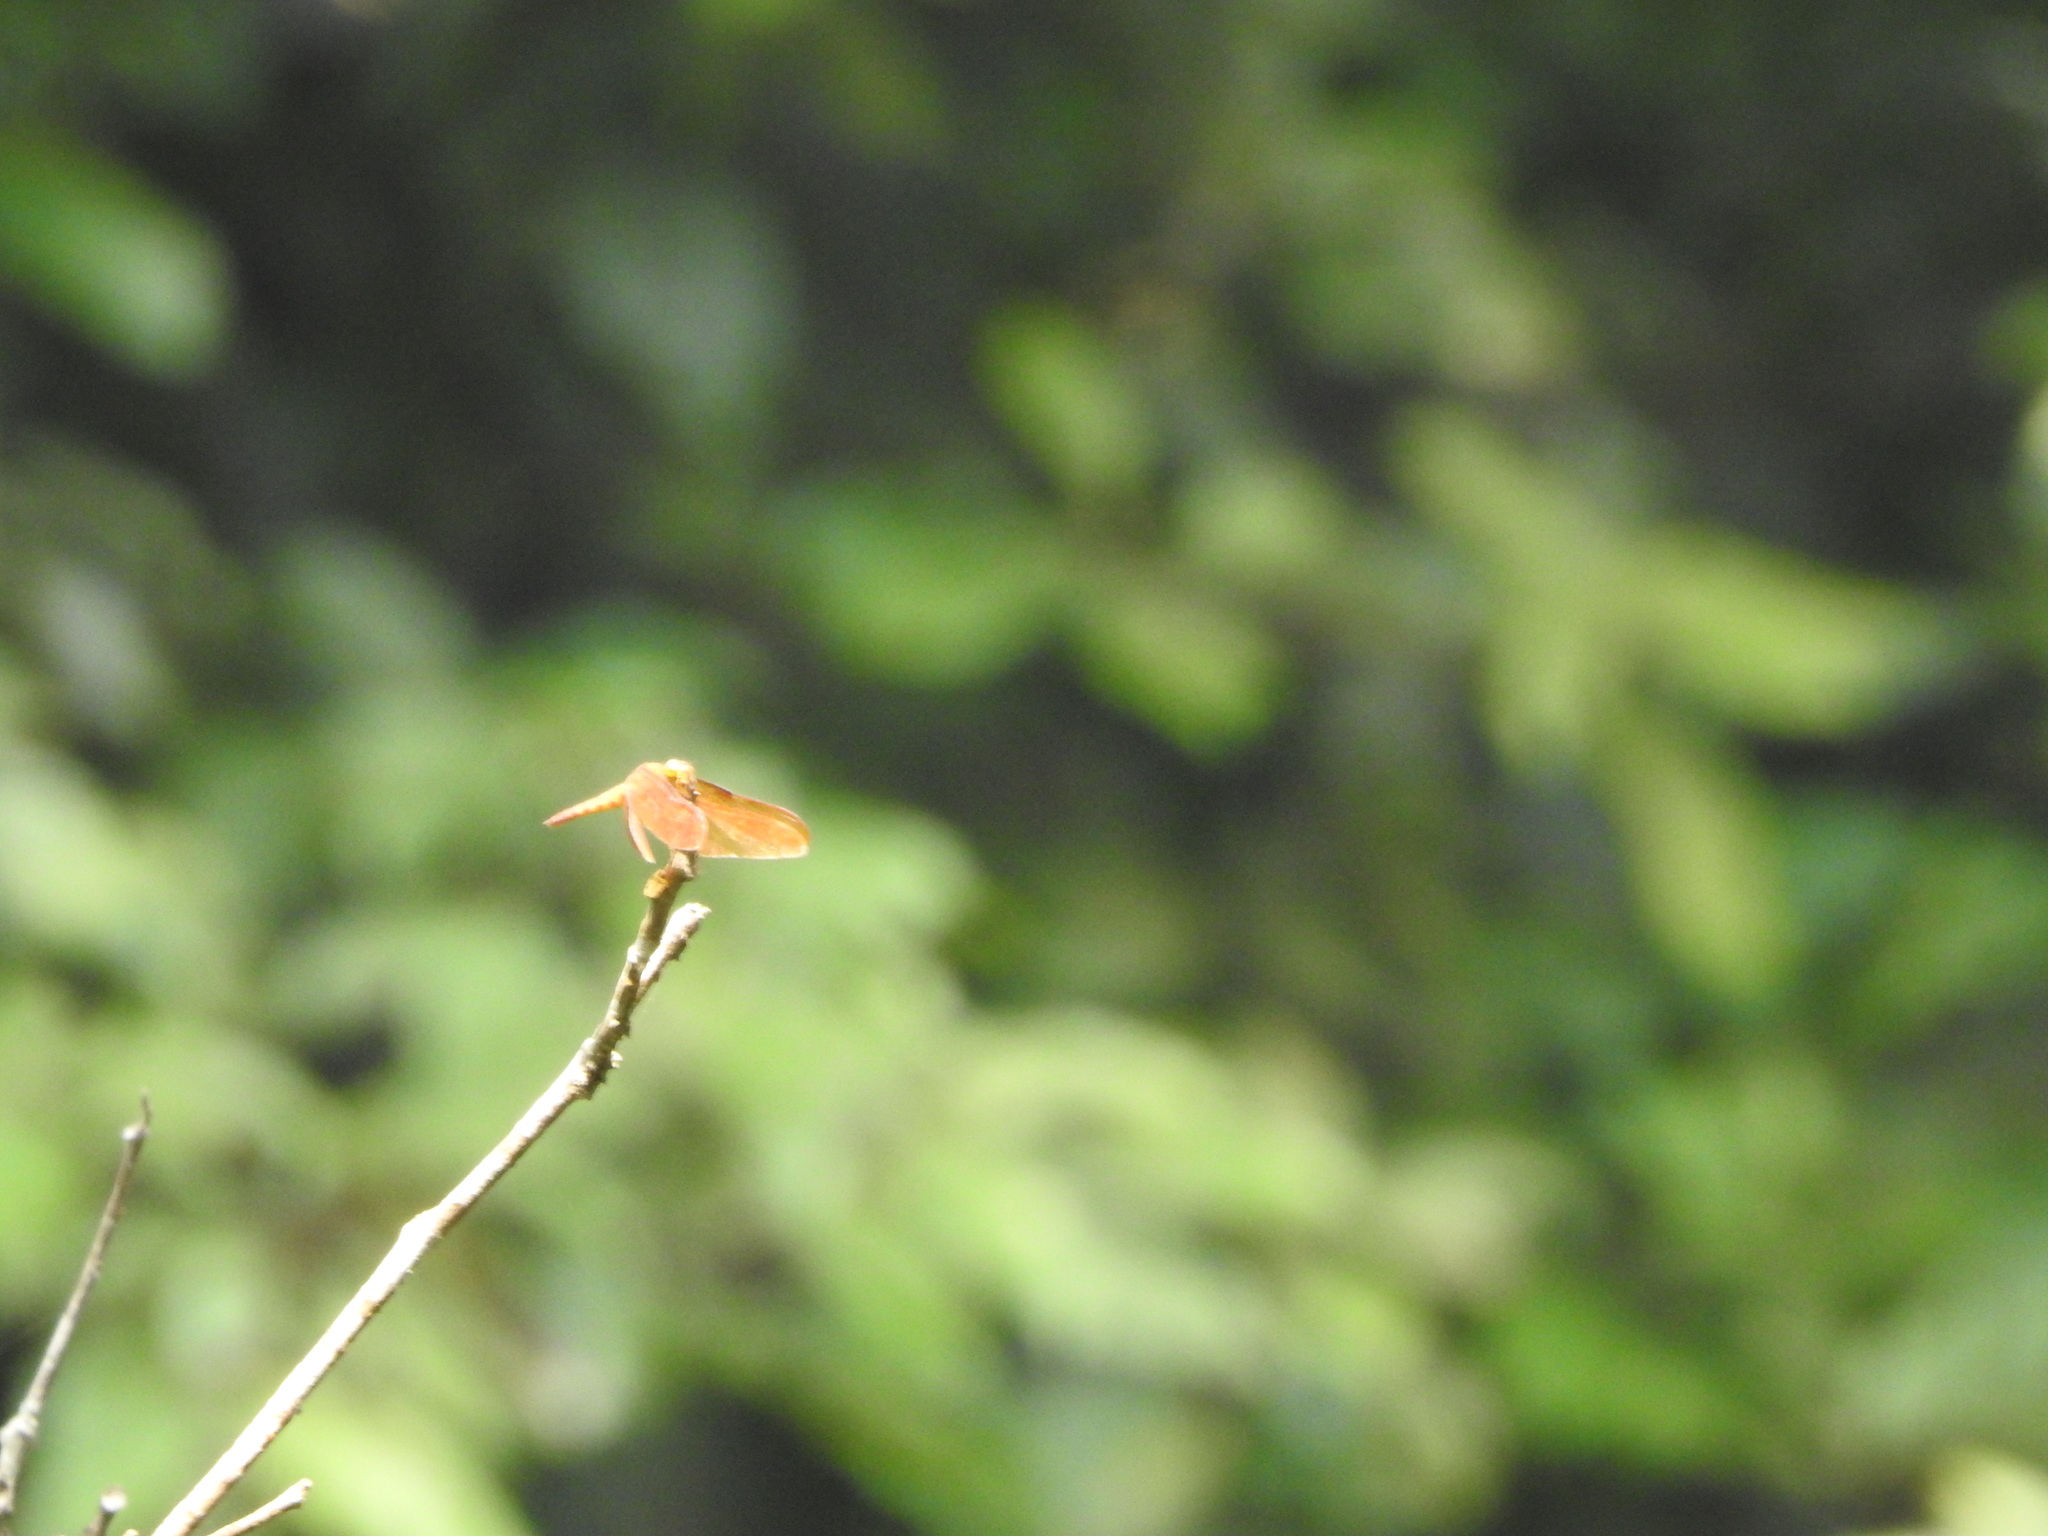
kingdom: Animalia
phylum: Arthropoda
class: Insecta
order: Odonata
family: Libellulidae
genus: Neurothemis
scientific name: Neurothemis fulvia
